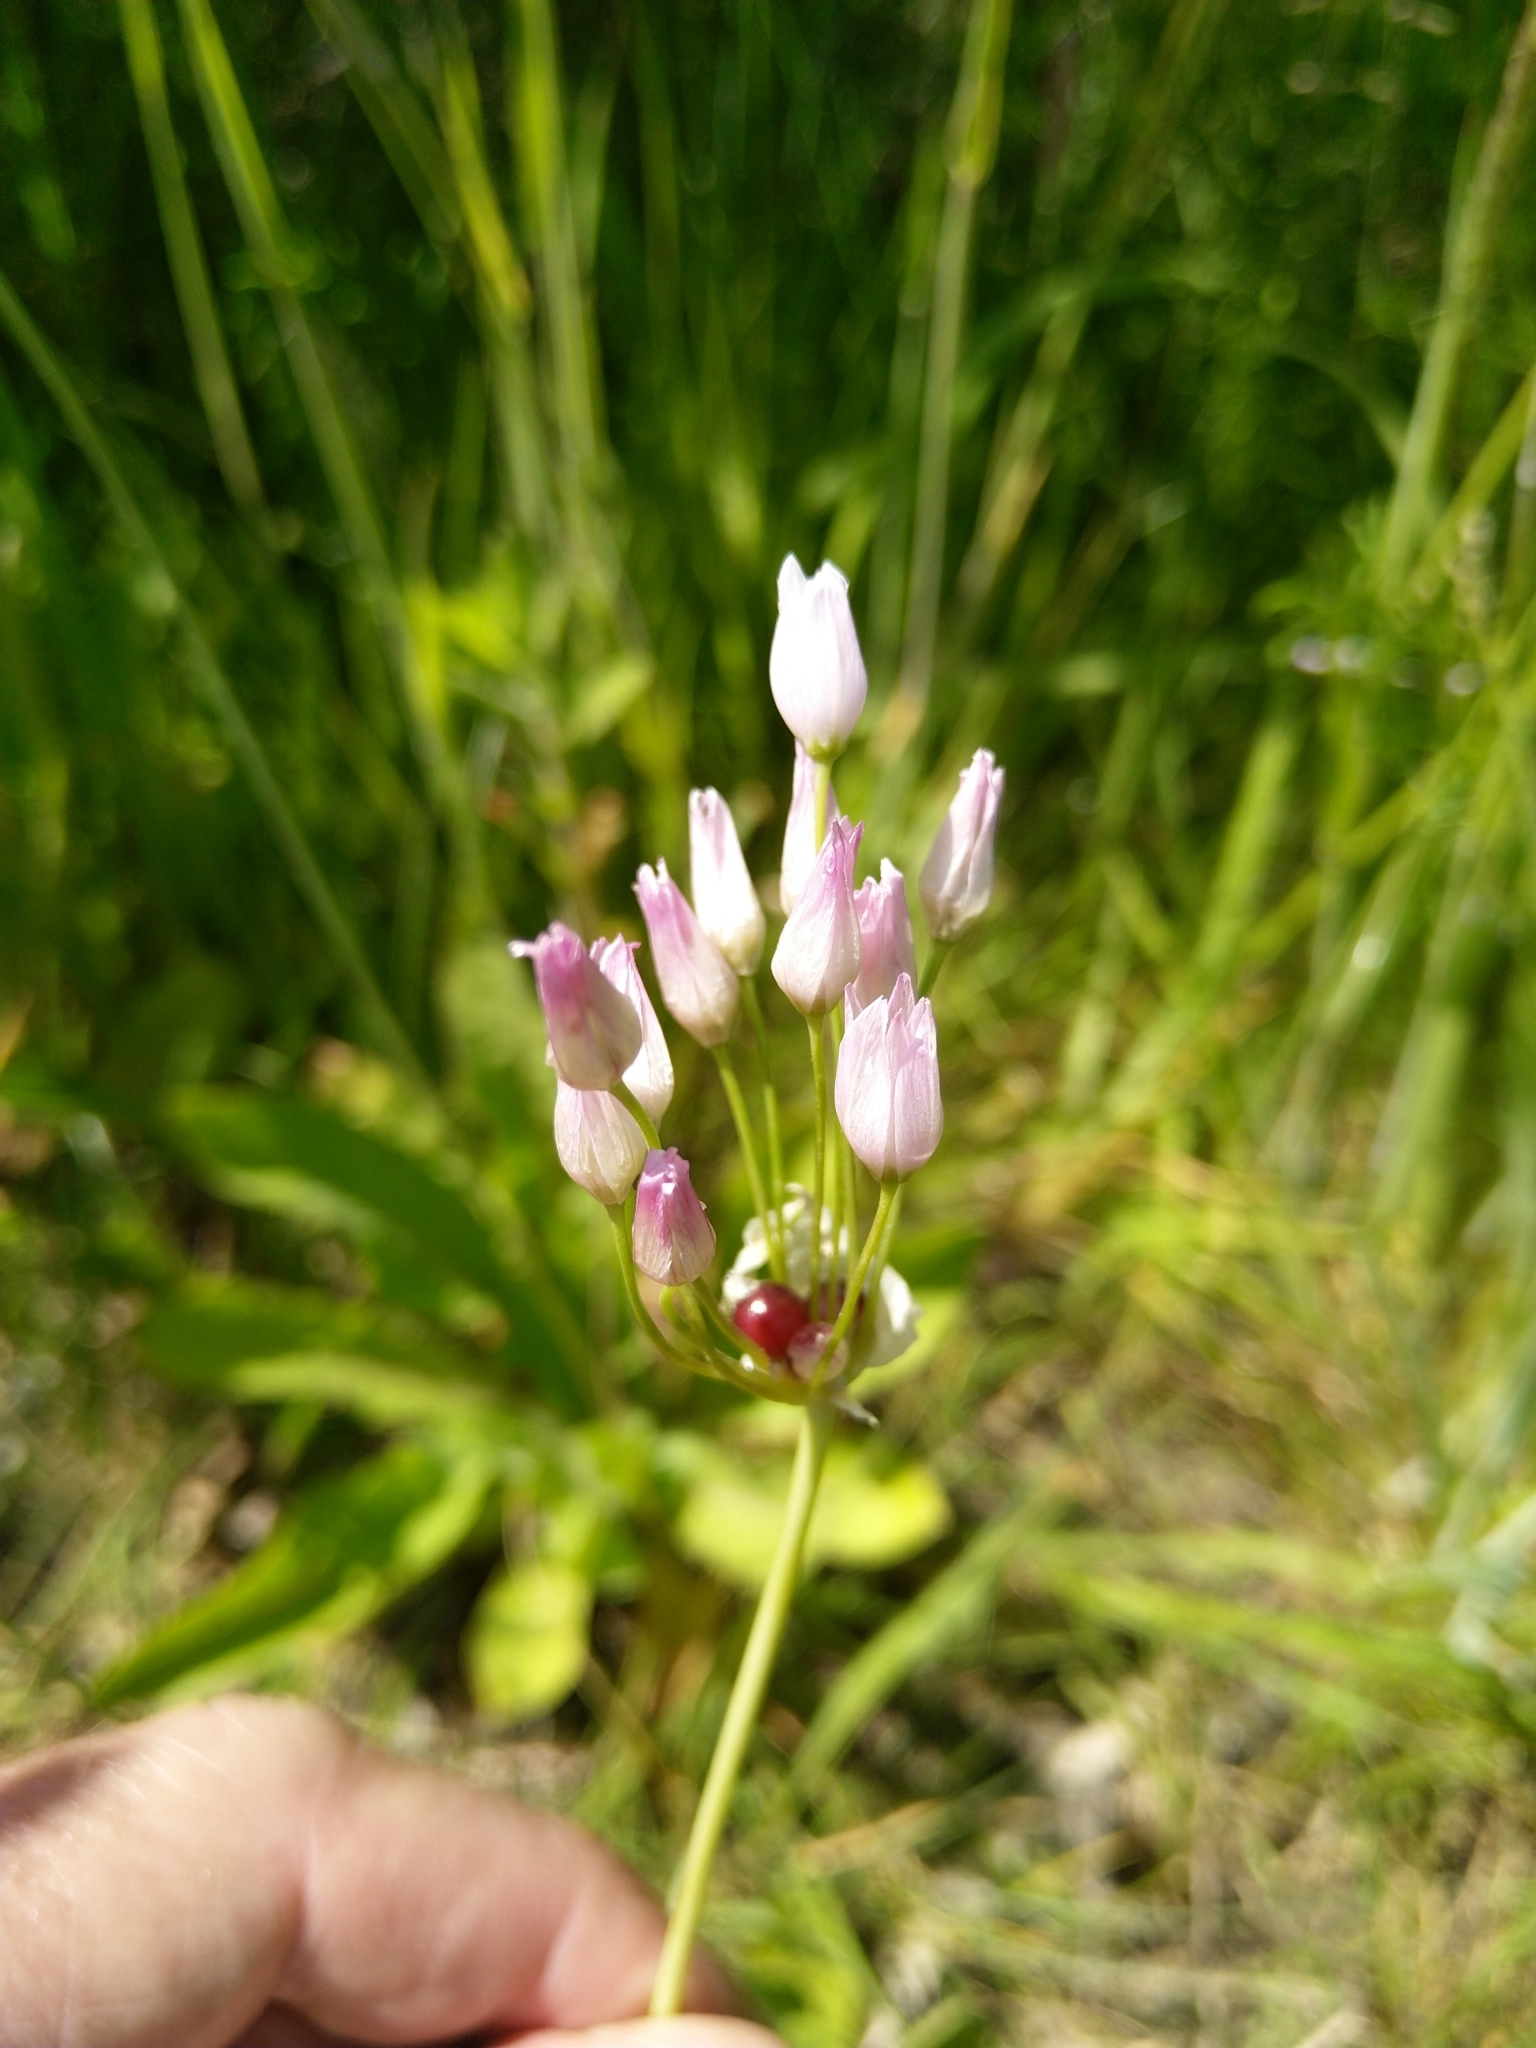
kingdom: Plantae
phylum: Tracheophyta
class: Liliopsida
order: Asparagales
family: Amaryllidaceae
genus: Allium
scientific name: Allium roseum
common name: Rosy garlic
